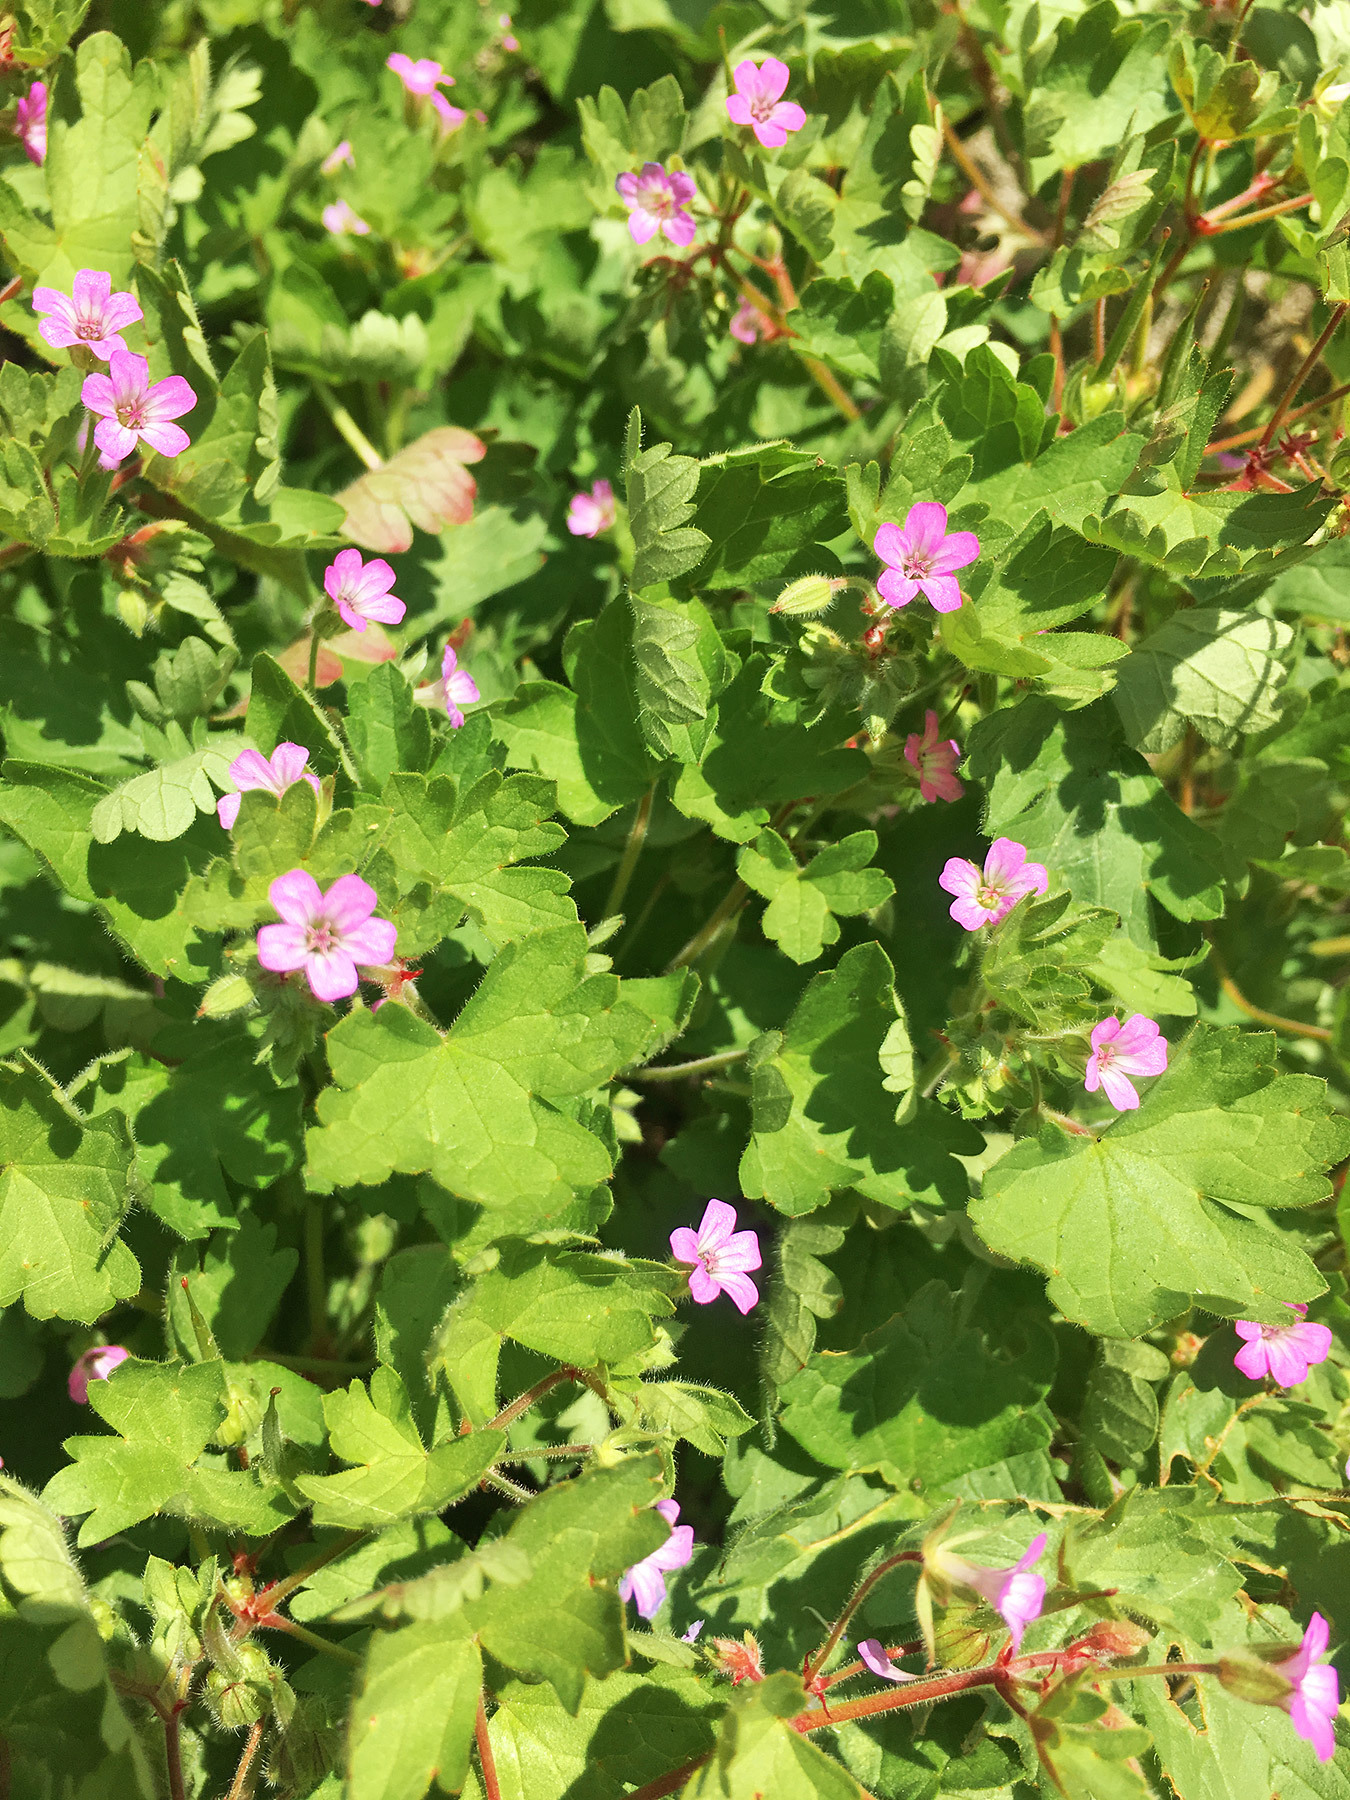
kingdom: Plantae
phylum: Tracheophyta
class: Magnoliopsida
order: Geraniales
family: Geraniaceae
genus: Geranium
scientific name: Geranium rotundifolium
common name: Round-leaved crane's-bill
